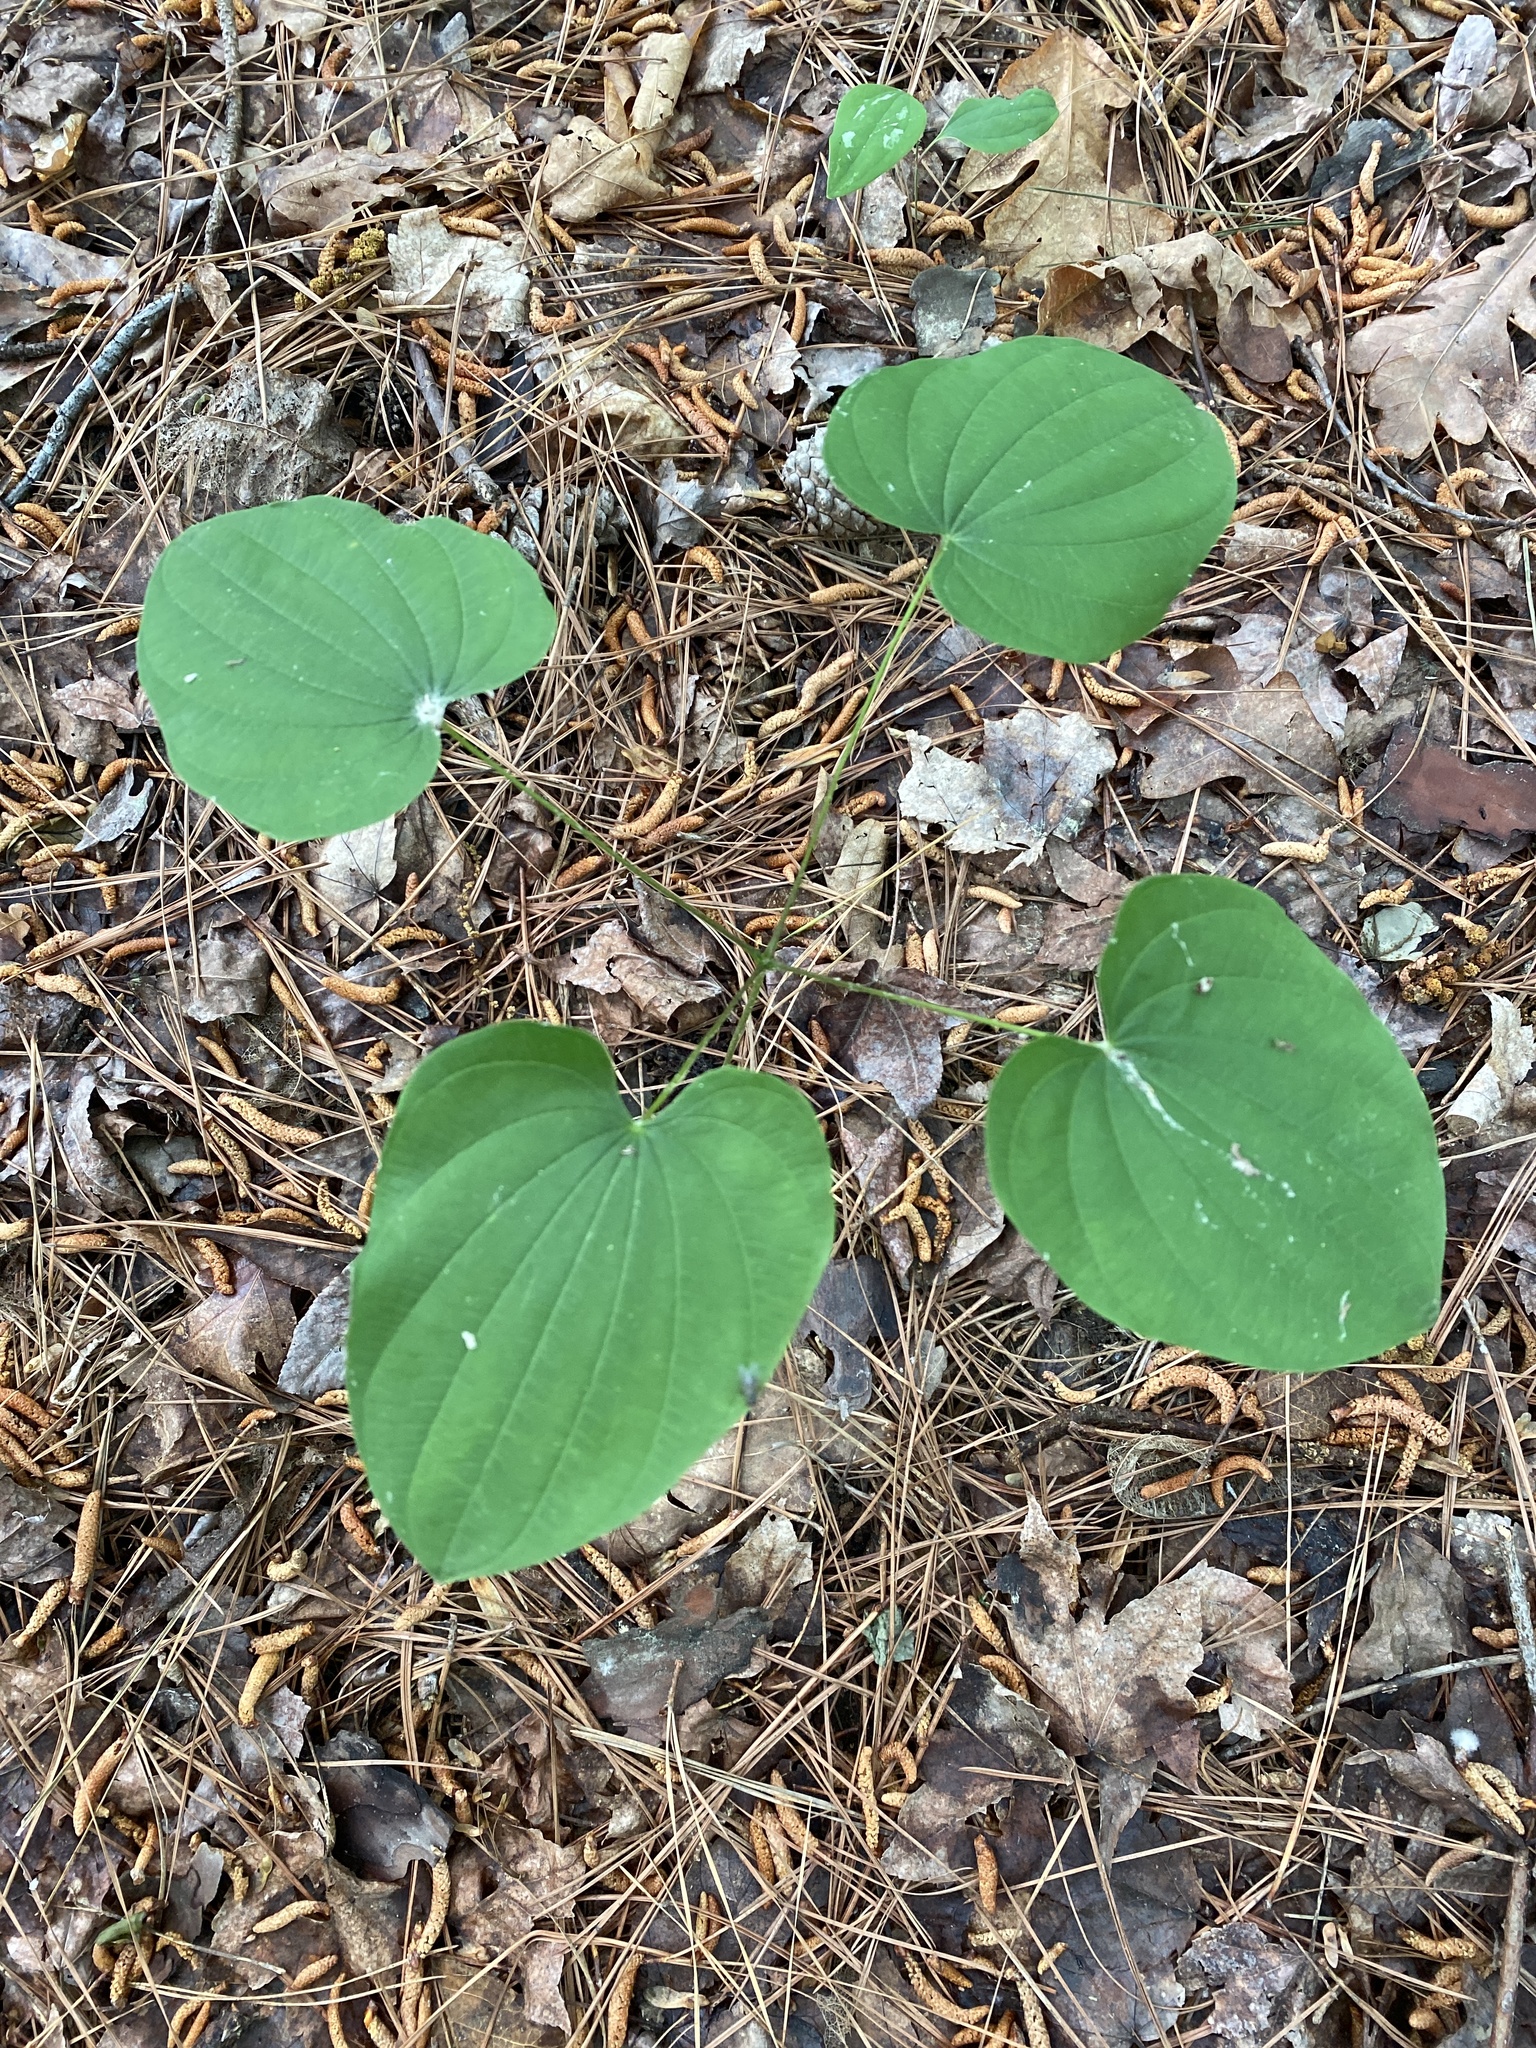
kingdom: Plantae
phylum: Tracheophyta
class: Liliopsida
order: Dioscoreales
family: Dioscoreaceae
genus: Dioscorea
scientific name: Dioscorea villosa
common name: Wild yam
